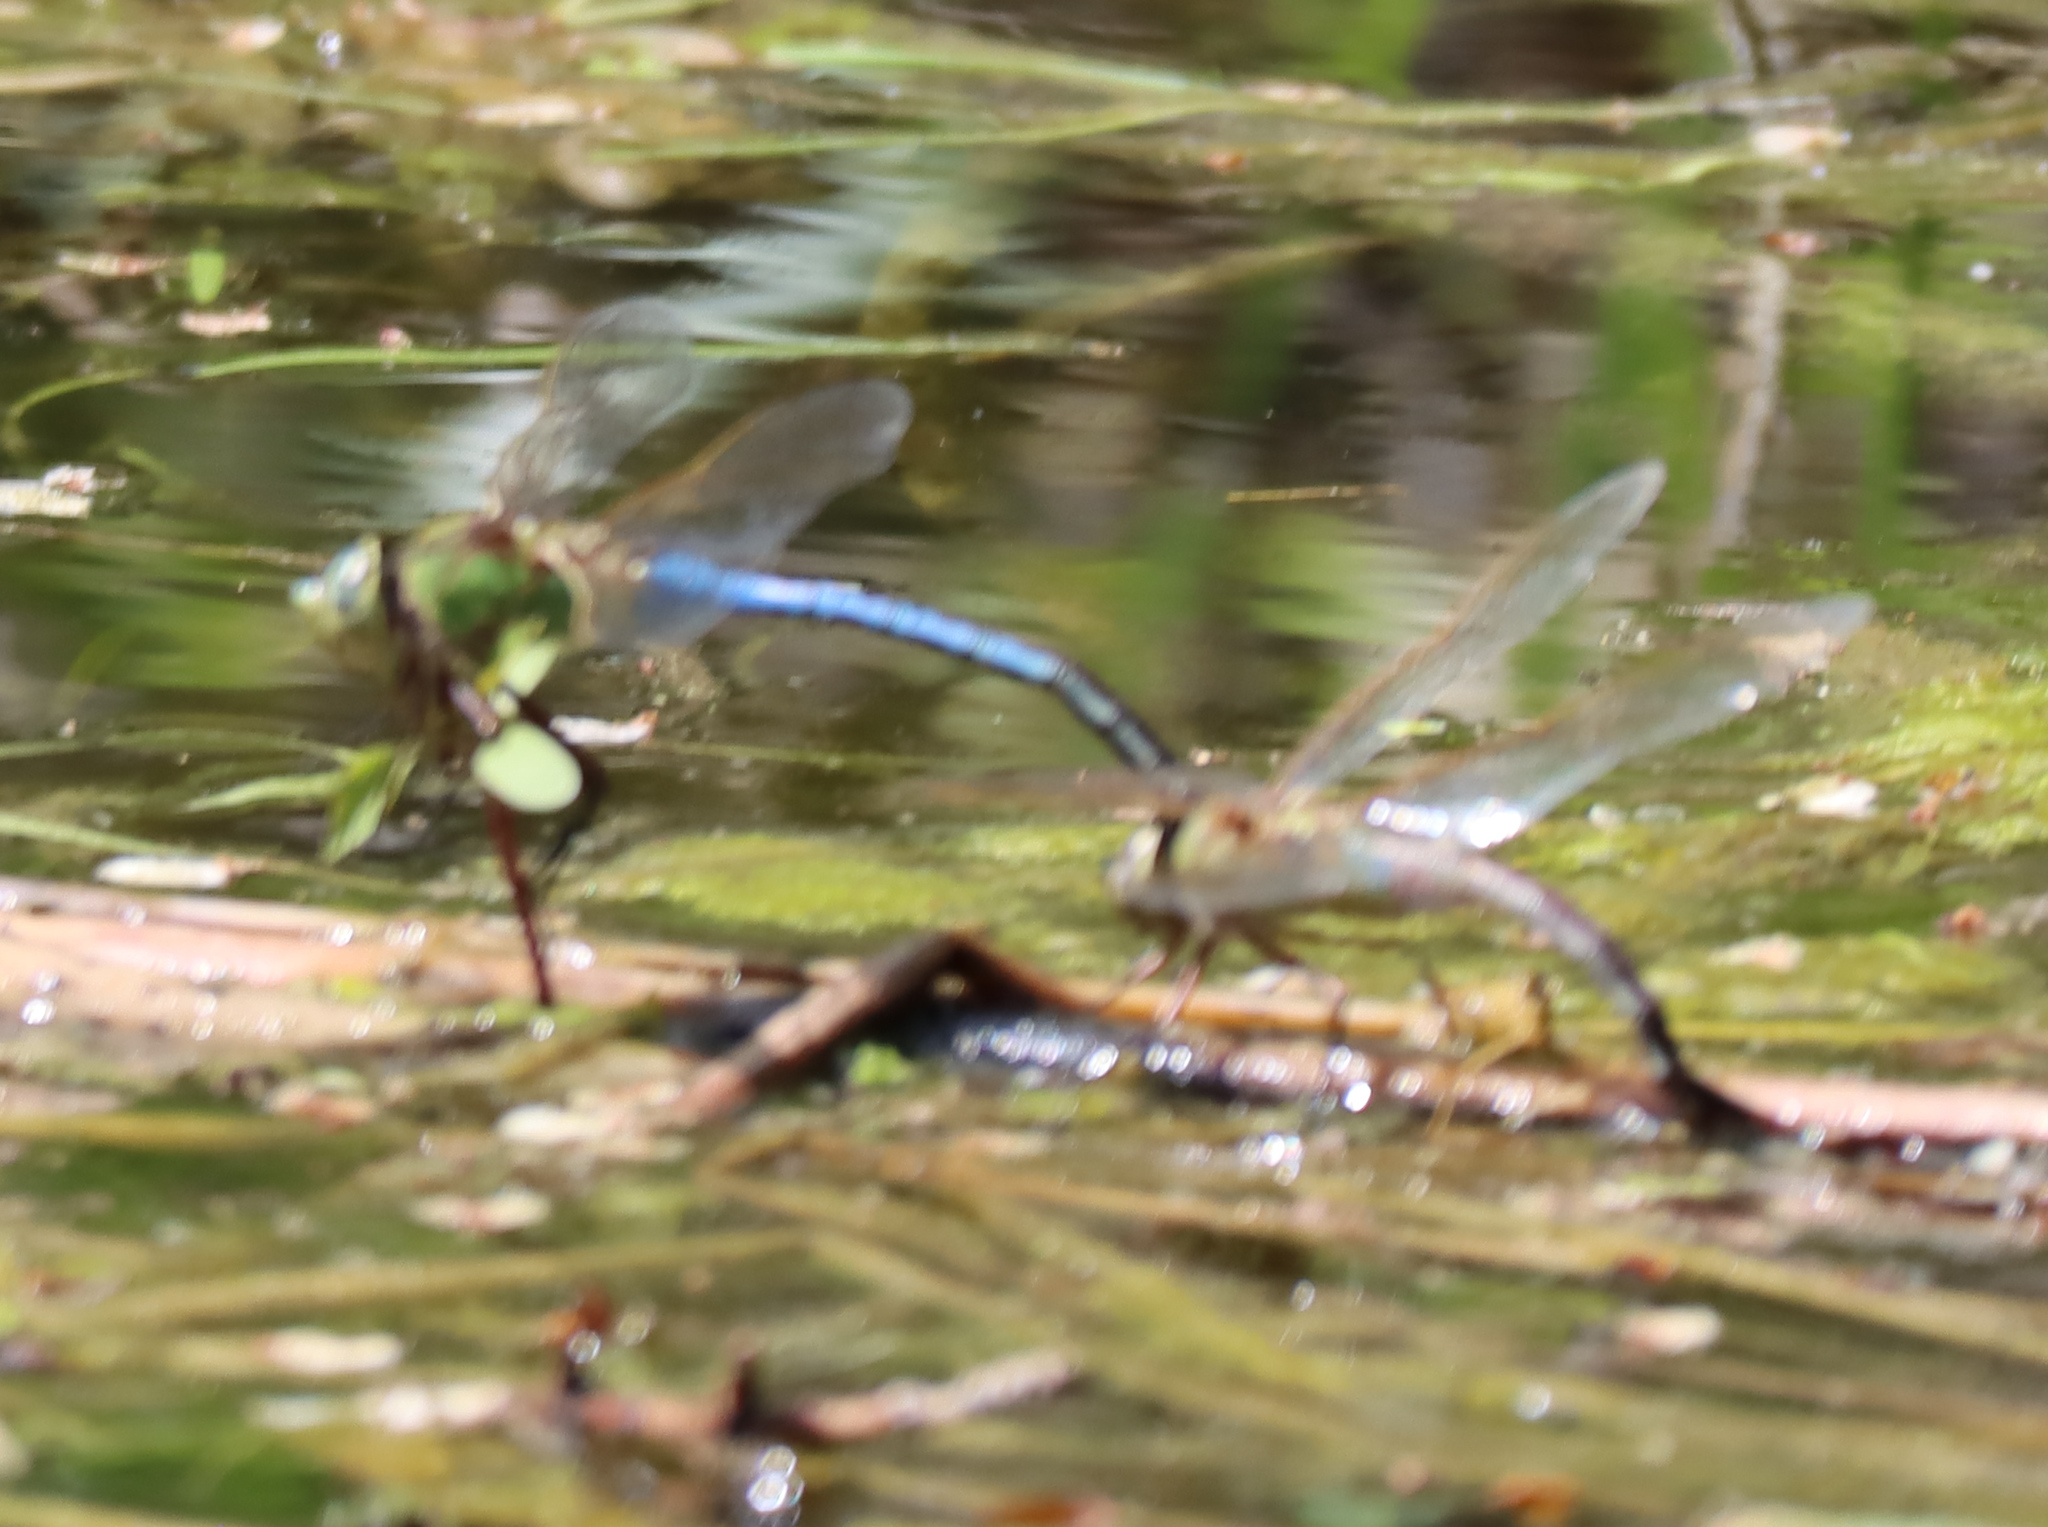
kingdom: Animalia
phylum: Arthropoda
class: Insecta
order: Odonata
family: Aeshnidae
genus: Anax
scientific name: Anax junius
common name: Common green darner
